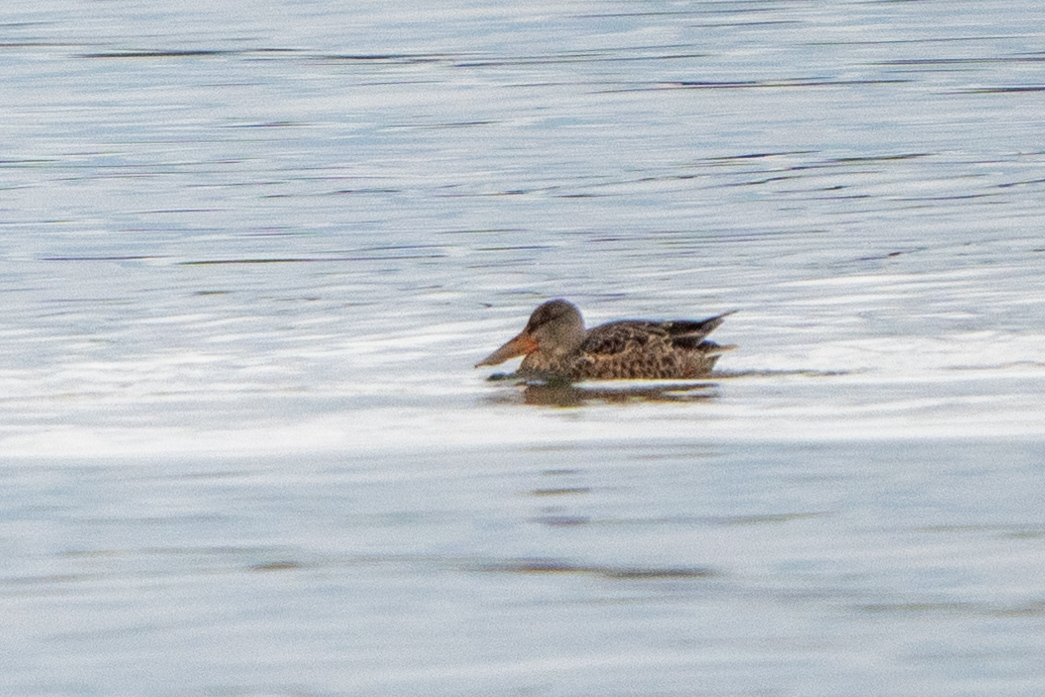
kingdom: Animalia
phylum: Chordata
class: Aves
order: Anseriformes
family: Anatidae
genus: Spatula
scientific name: Spatula clypeata
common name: Northern shoveler
